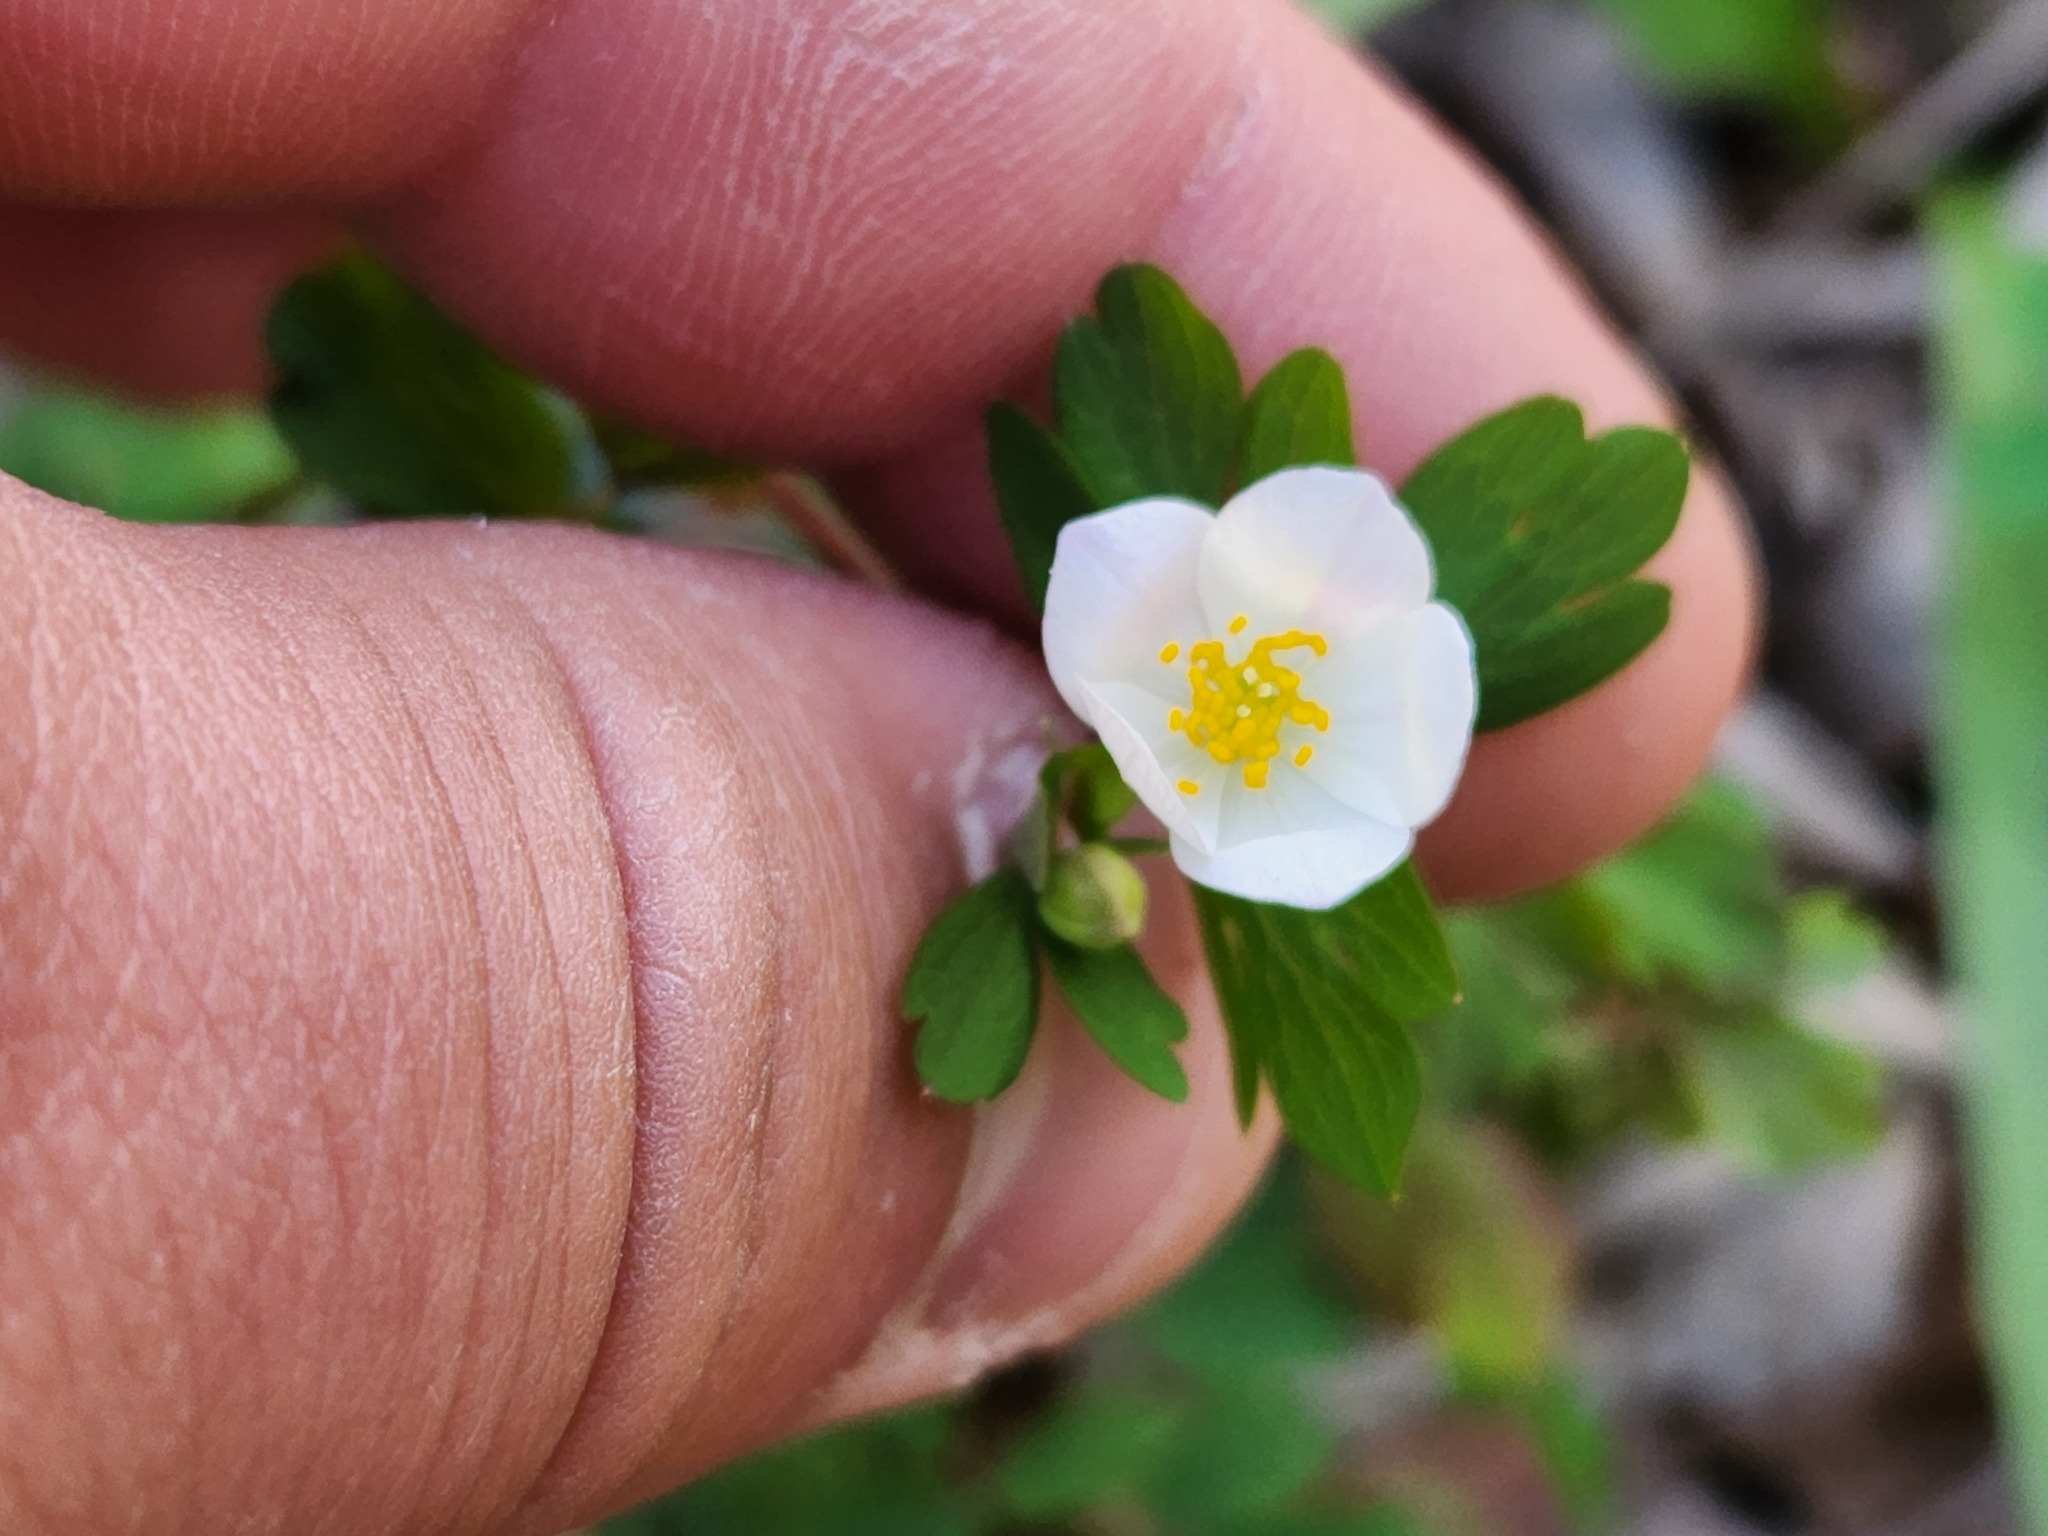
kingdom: Plantae
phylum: Tracheophyta
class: Magnoliopsida
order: Ranunculales
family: Ranunculaceae
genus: Enemion
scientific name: Enemion biternatum
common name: Eastern false rue-anemone
